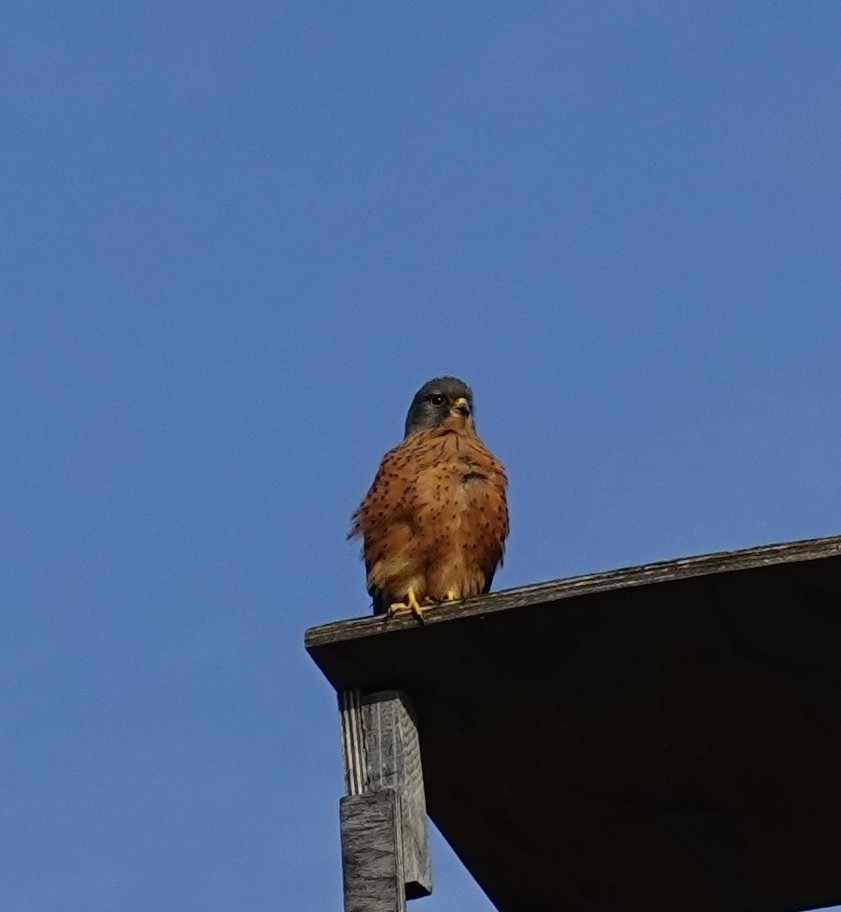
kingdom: Animalia
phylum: Chordata
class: Aves
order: Falconiformes
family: Falconidae
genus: Falco
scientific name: Falco rupicolus
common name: Rock kestrel
